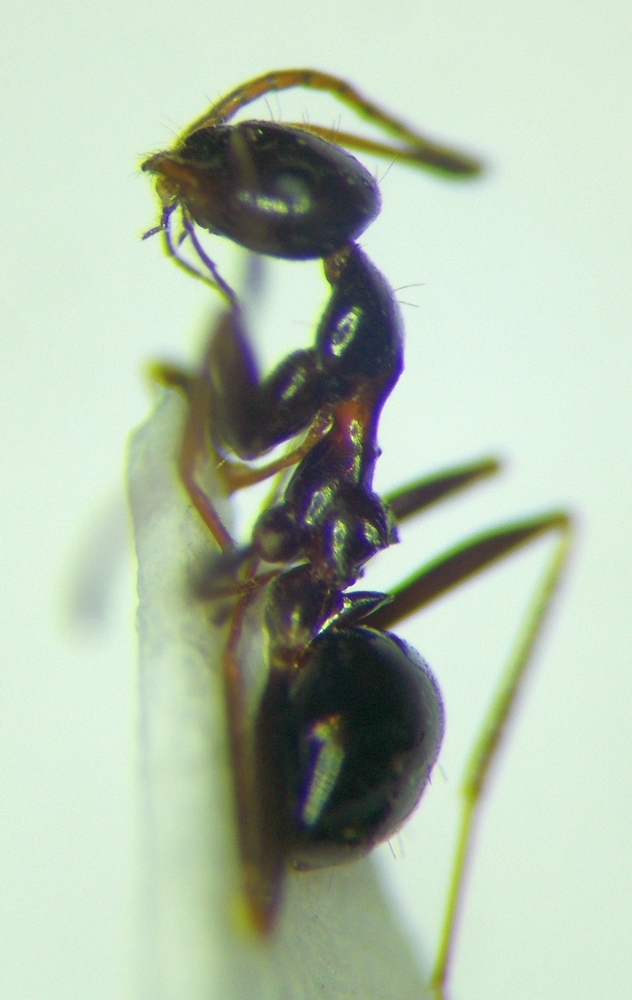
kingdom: Animalia
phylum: Arthropoda
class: Insecta
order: Hymenoptera
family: Formicidae
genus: Lepisiota
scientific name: Lepisiota frauenfeldi
